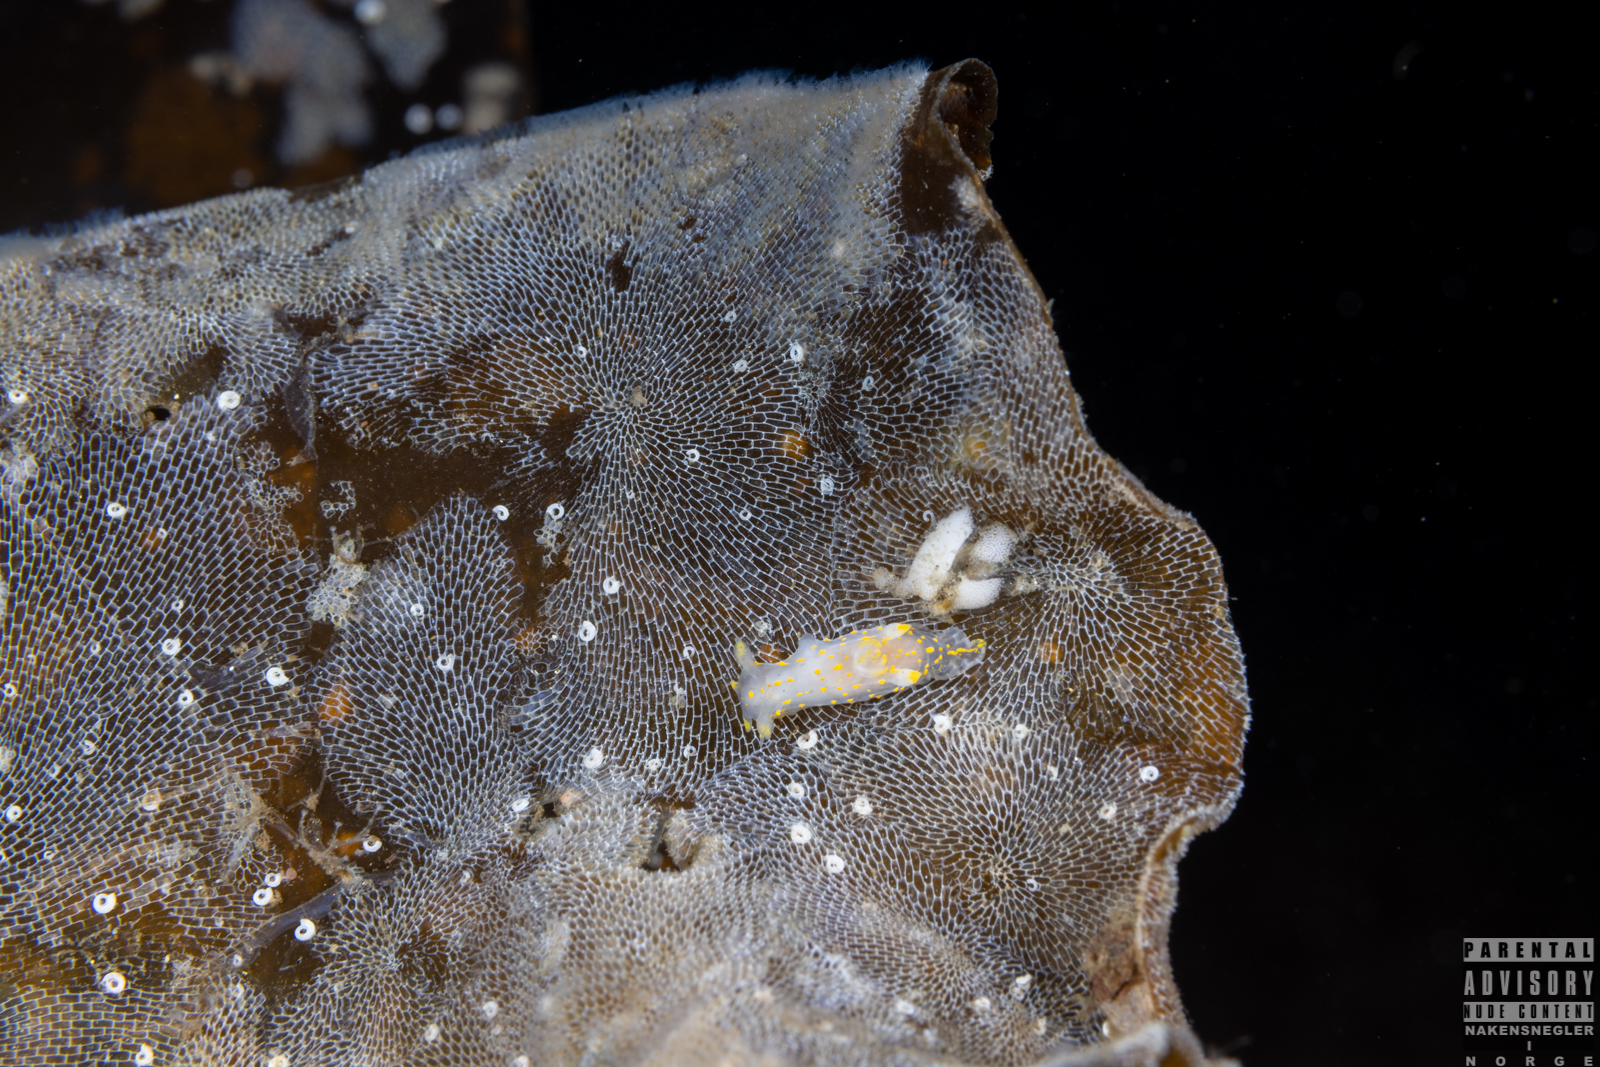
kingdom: Animalia
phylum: Mollusca
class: Gastropoda
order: Nudibranchia
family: Polyceridae
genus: Polycera
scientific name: Polycera quadrilineata
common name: Four-striped polycera
